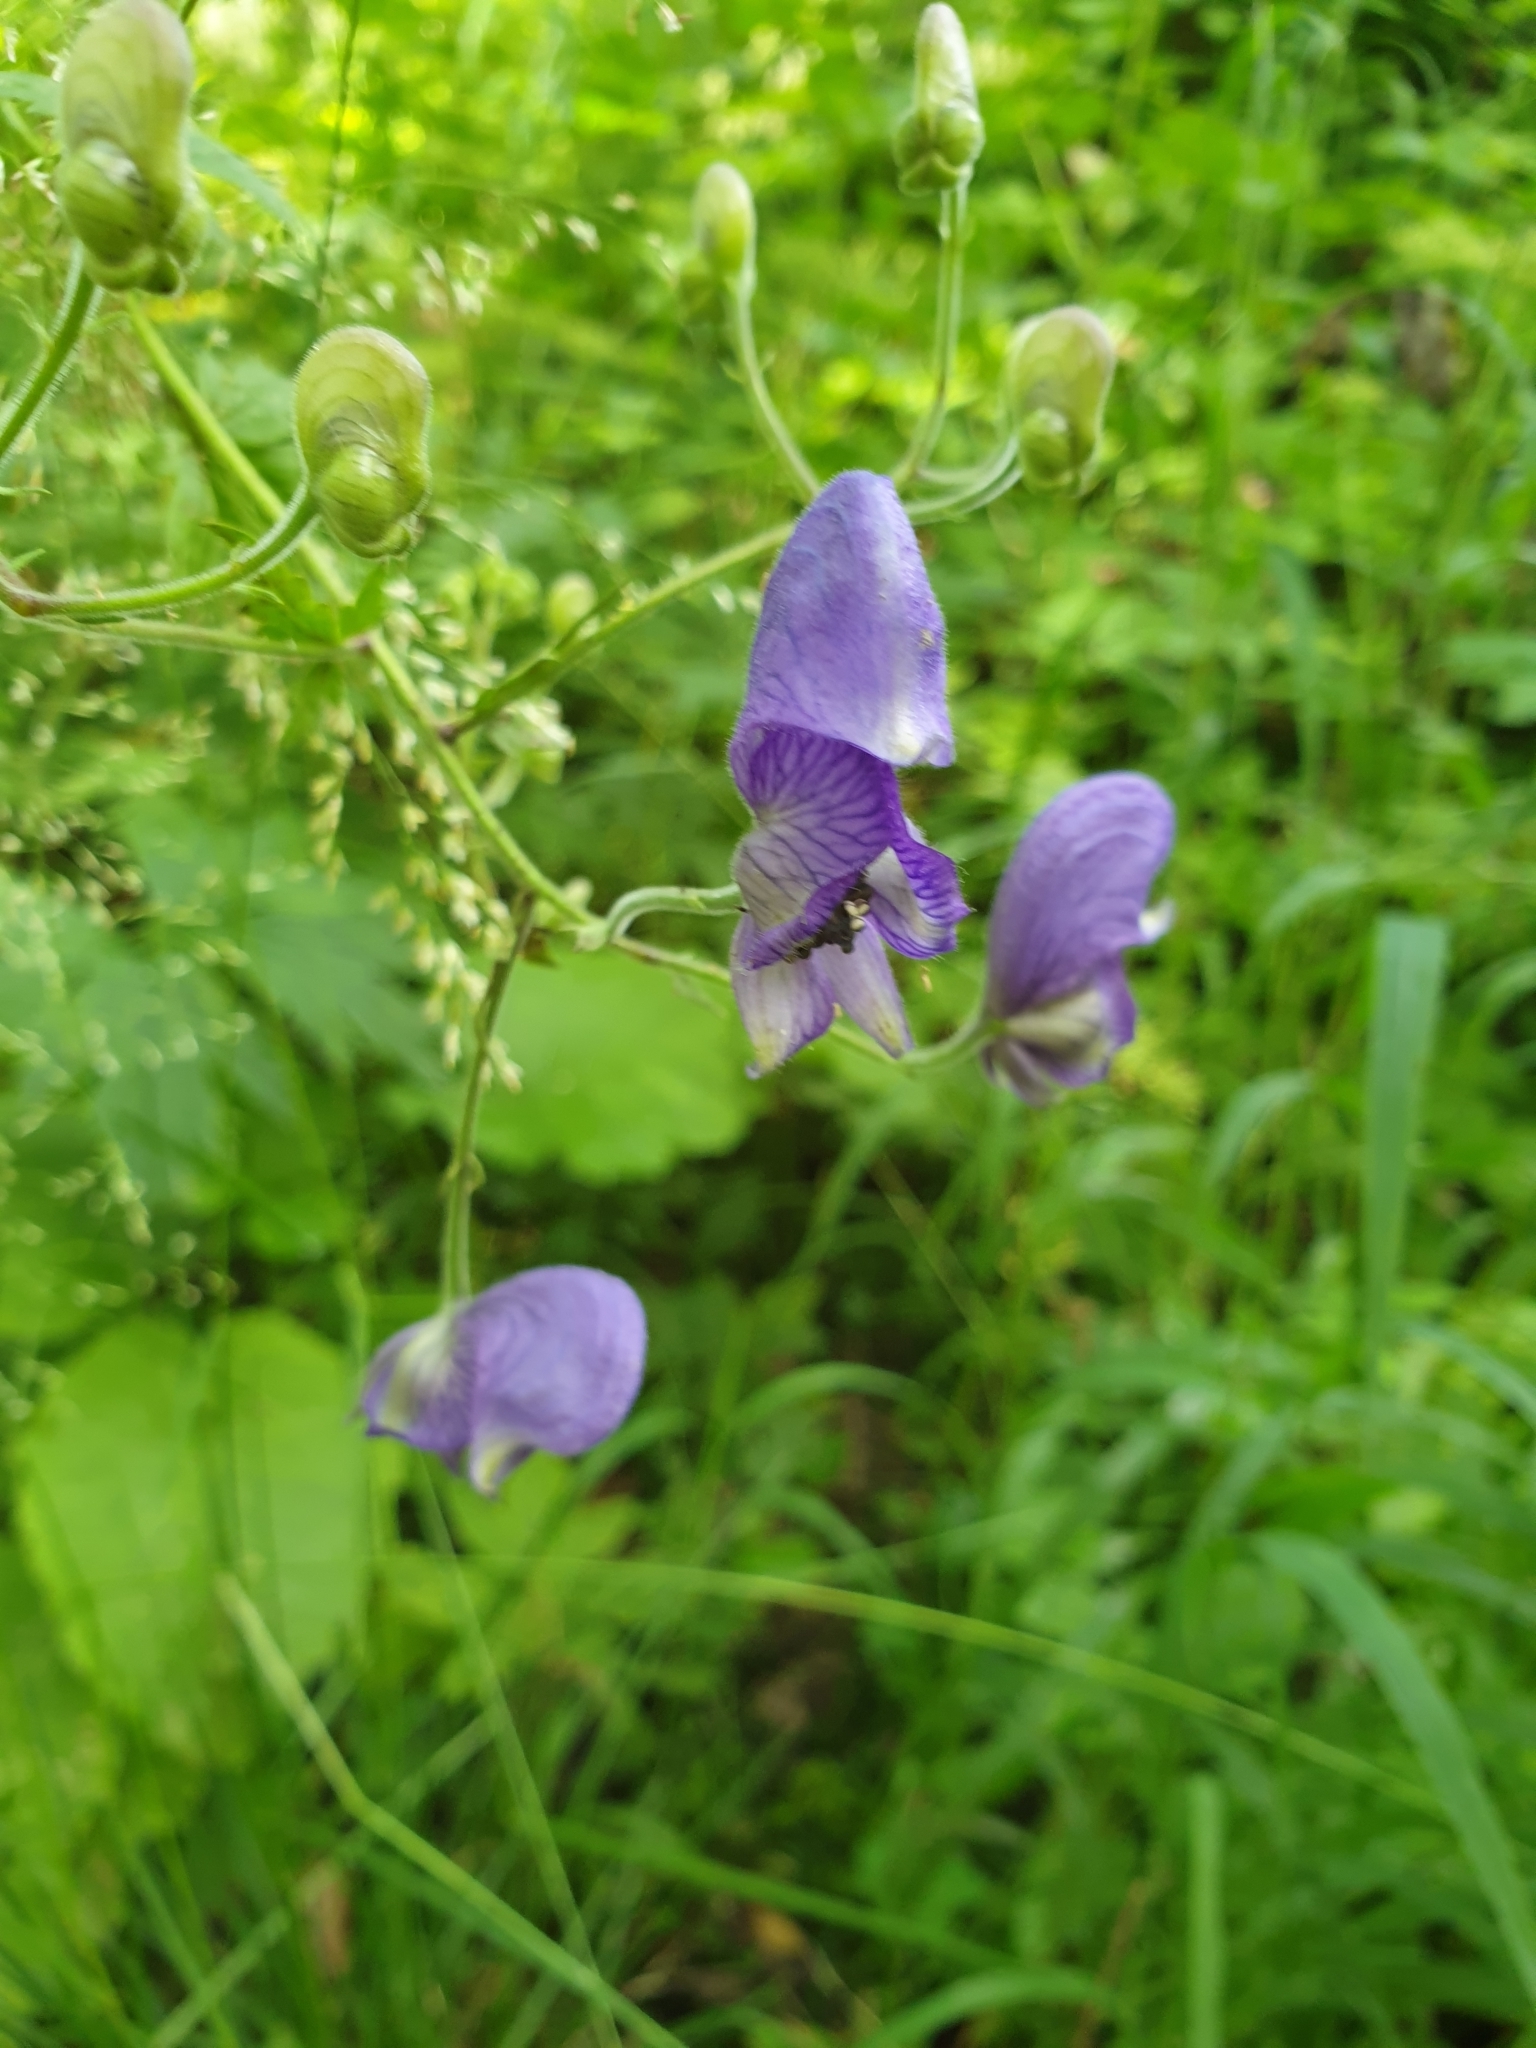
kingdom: Plantae
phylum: Tracheophyta
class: Magnoliopsida
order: Ranunculales
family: Ranunculaceae
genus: Aconitum
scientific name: Aconitum degenii
